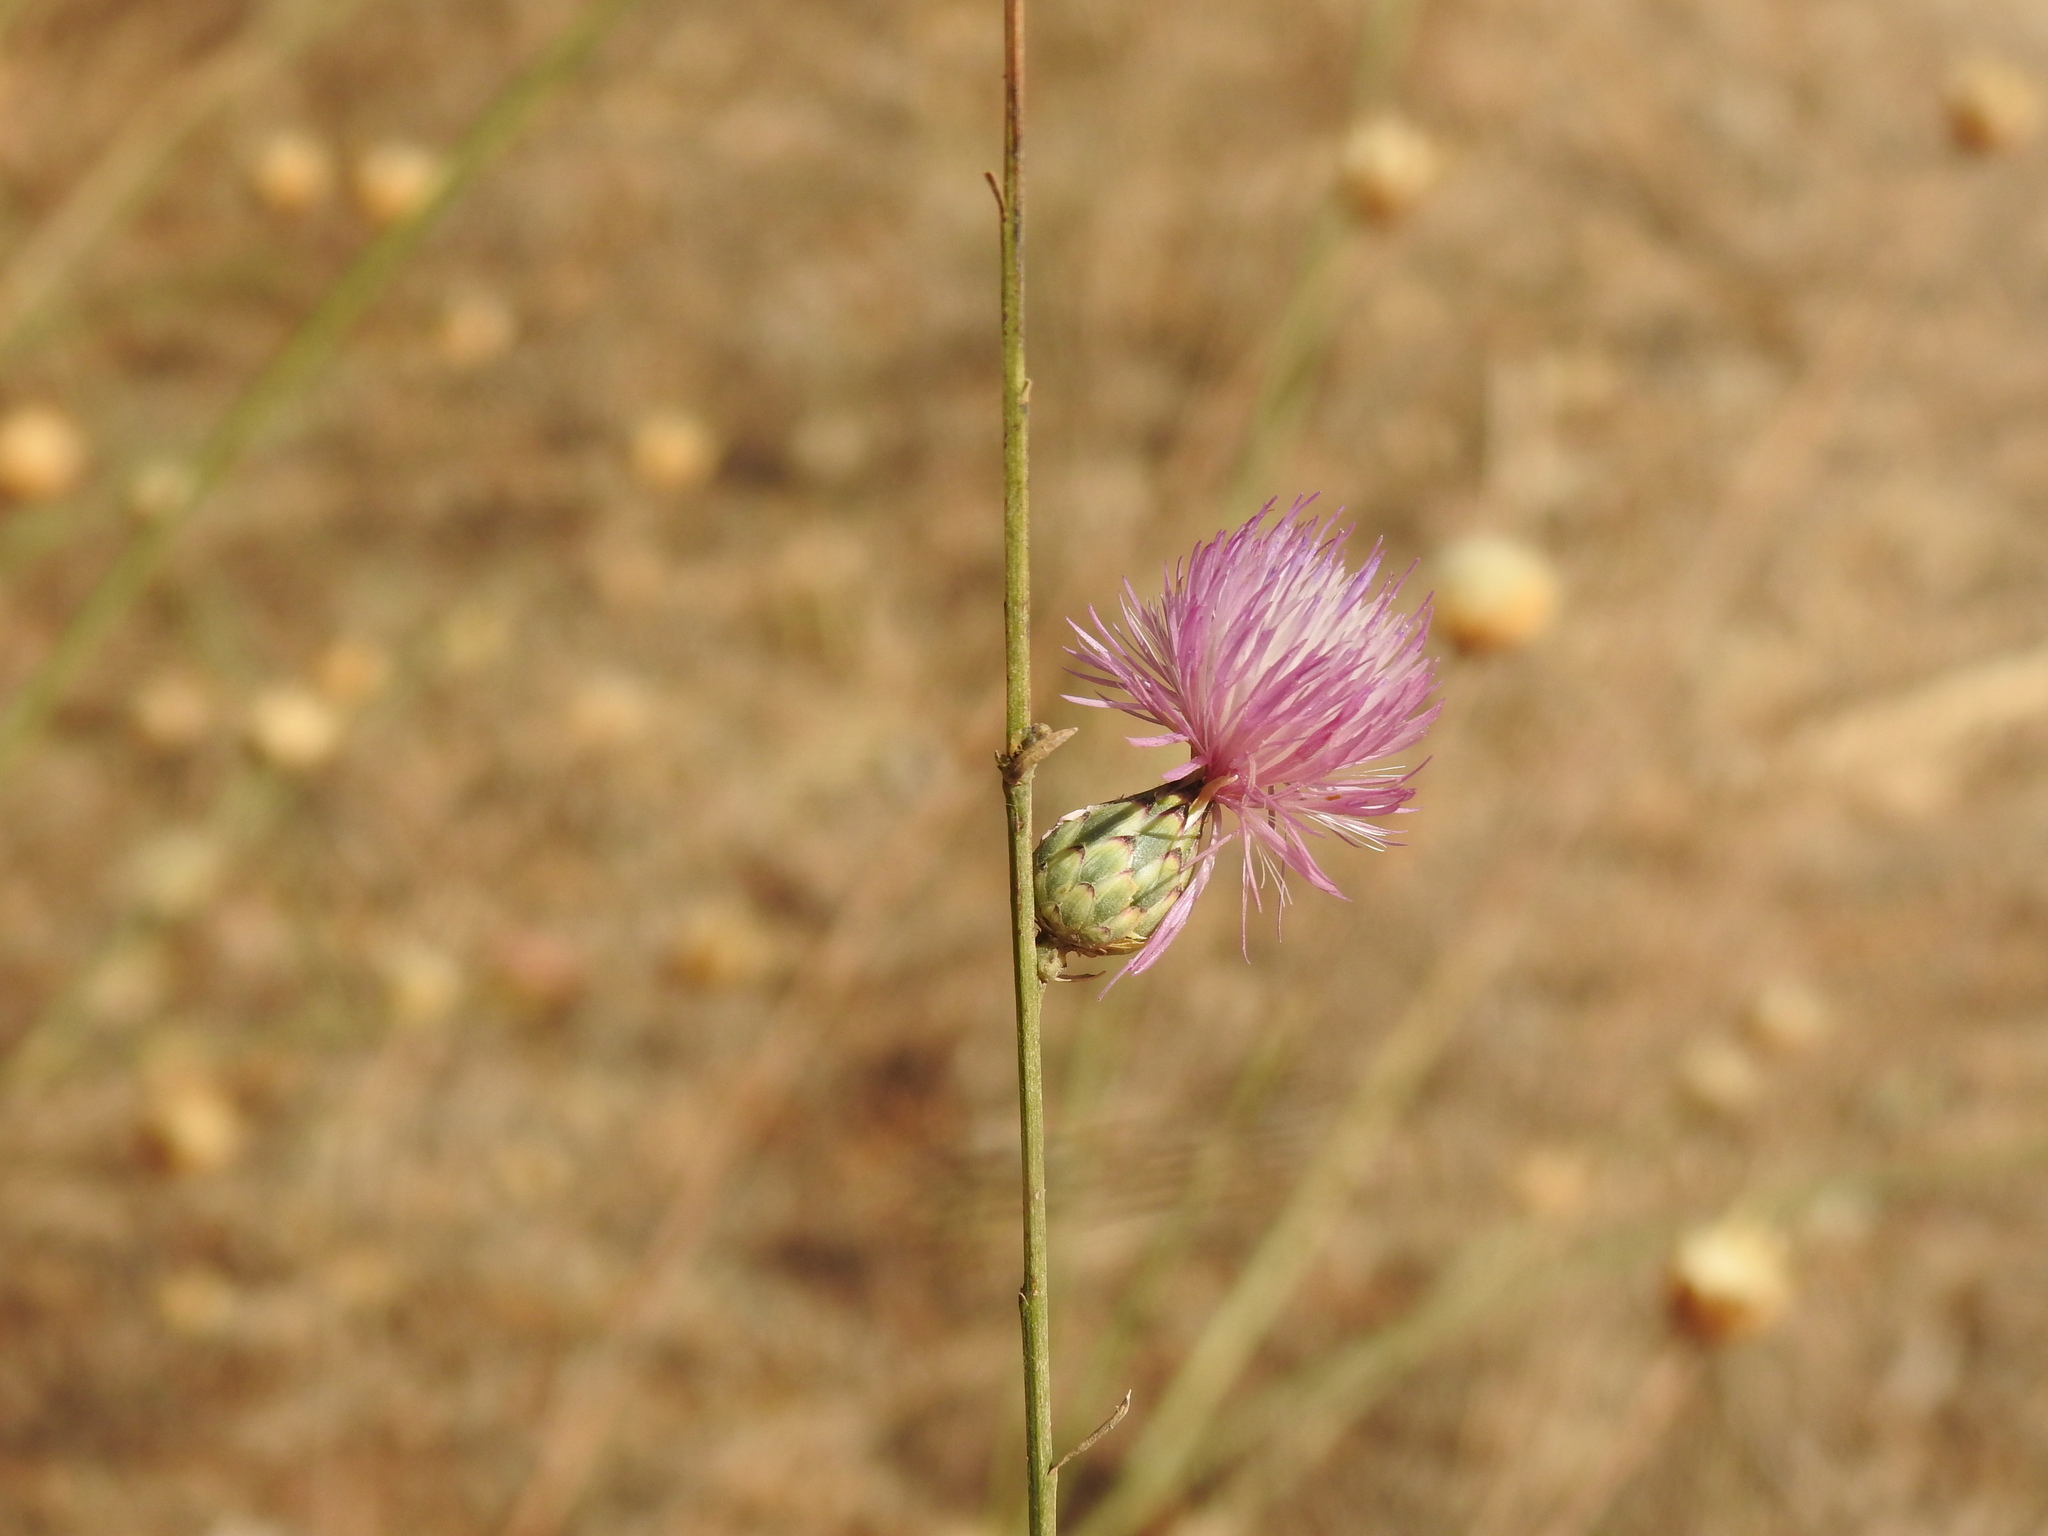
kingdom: Plantae
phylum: Tracheophyta
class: Magnoliopsida
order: Asterales
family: Asteraceae
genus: Mantisalca
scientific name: Mantisalca salmantica
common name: Dagger flower
